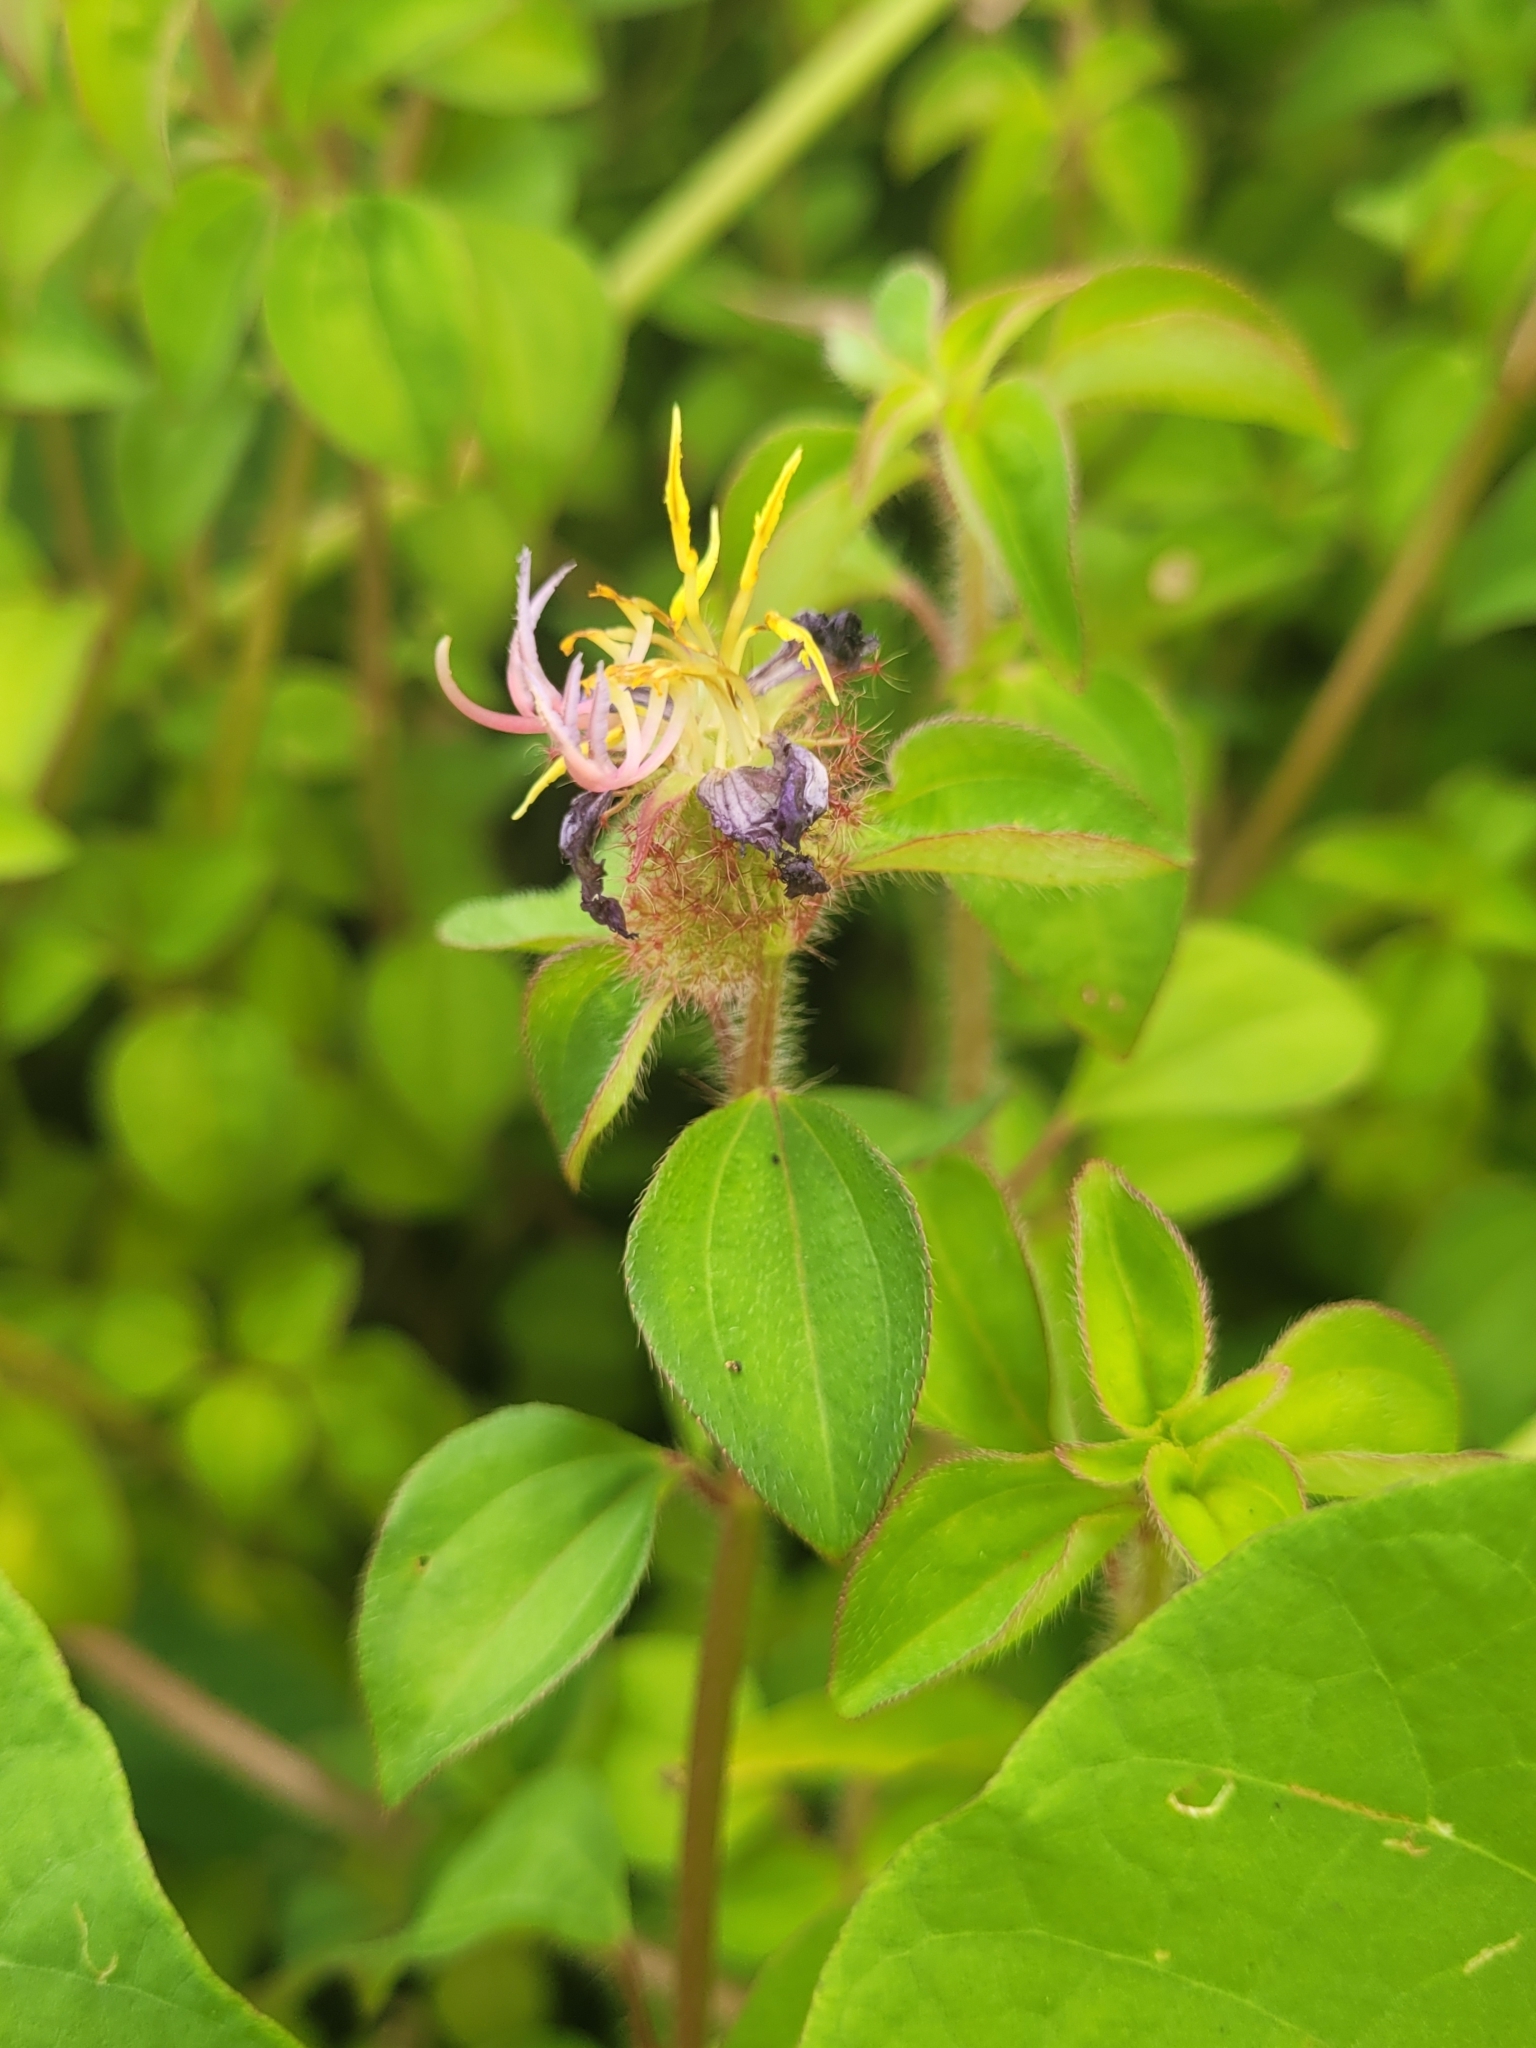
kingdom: Plantae
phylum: Tracheophyta
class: Magnoliopsida
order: Myrtales
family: Melastomataceae
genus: Heterotis
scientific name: Heterotis rotundifolia
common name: Pinklady
